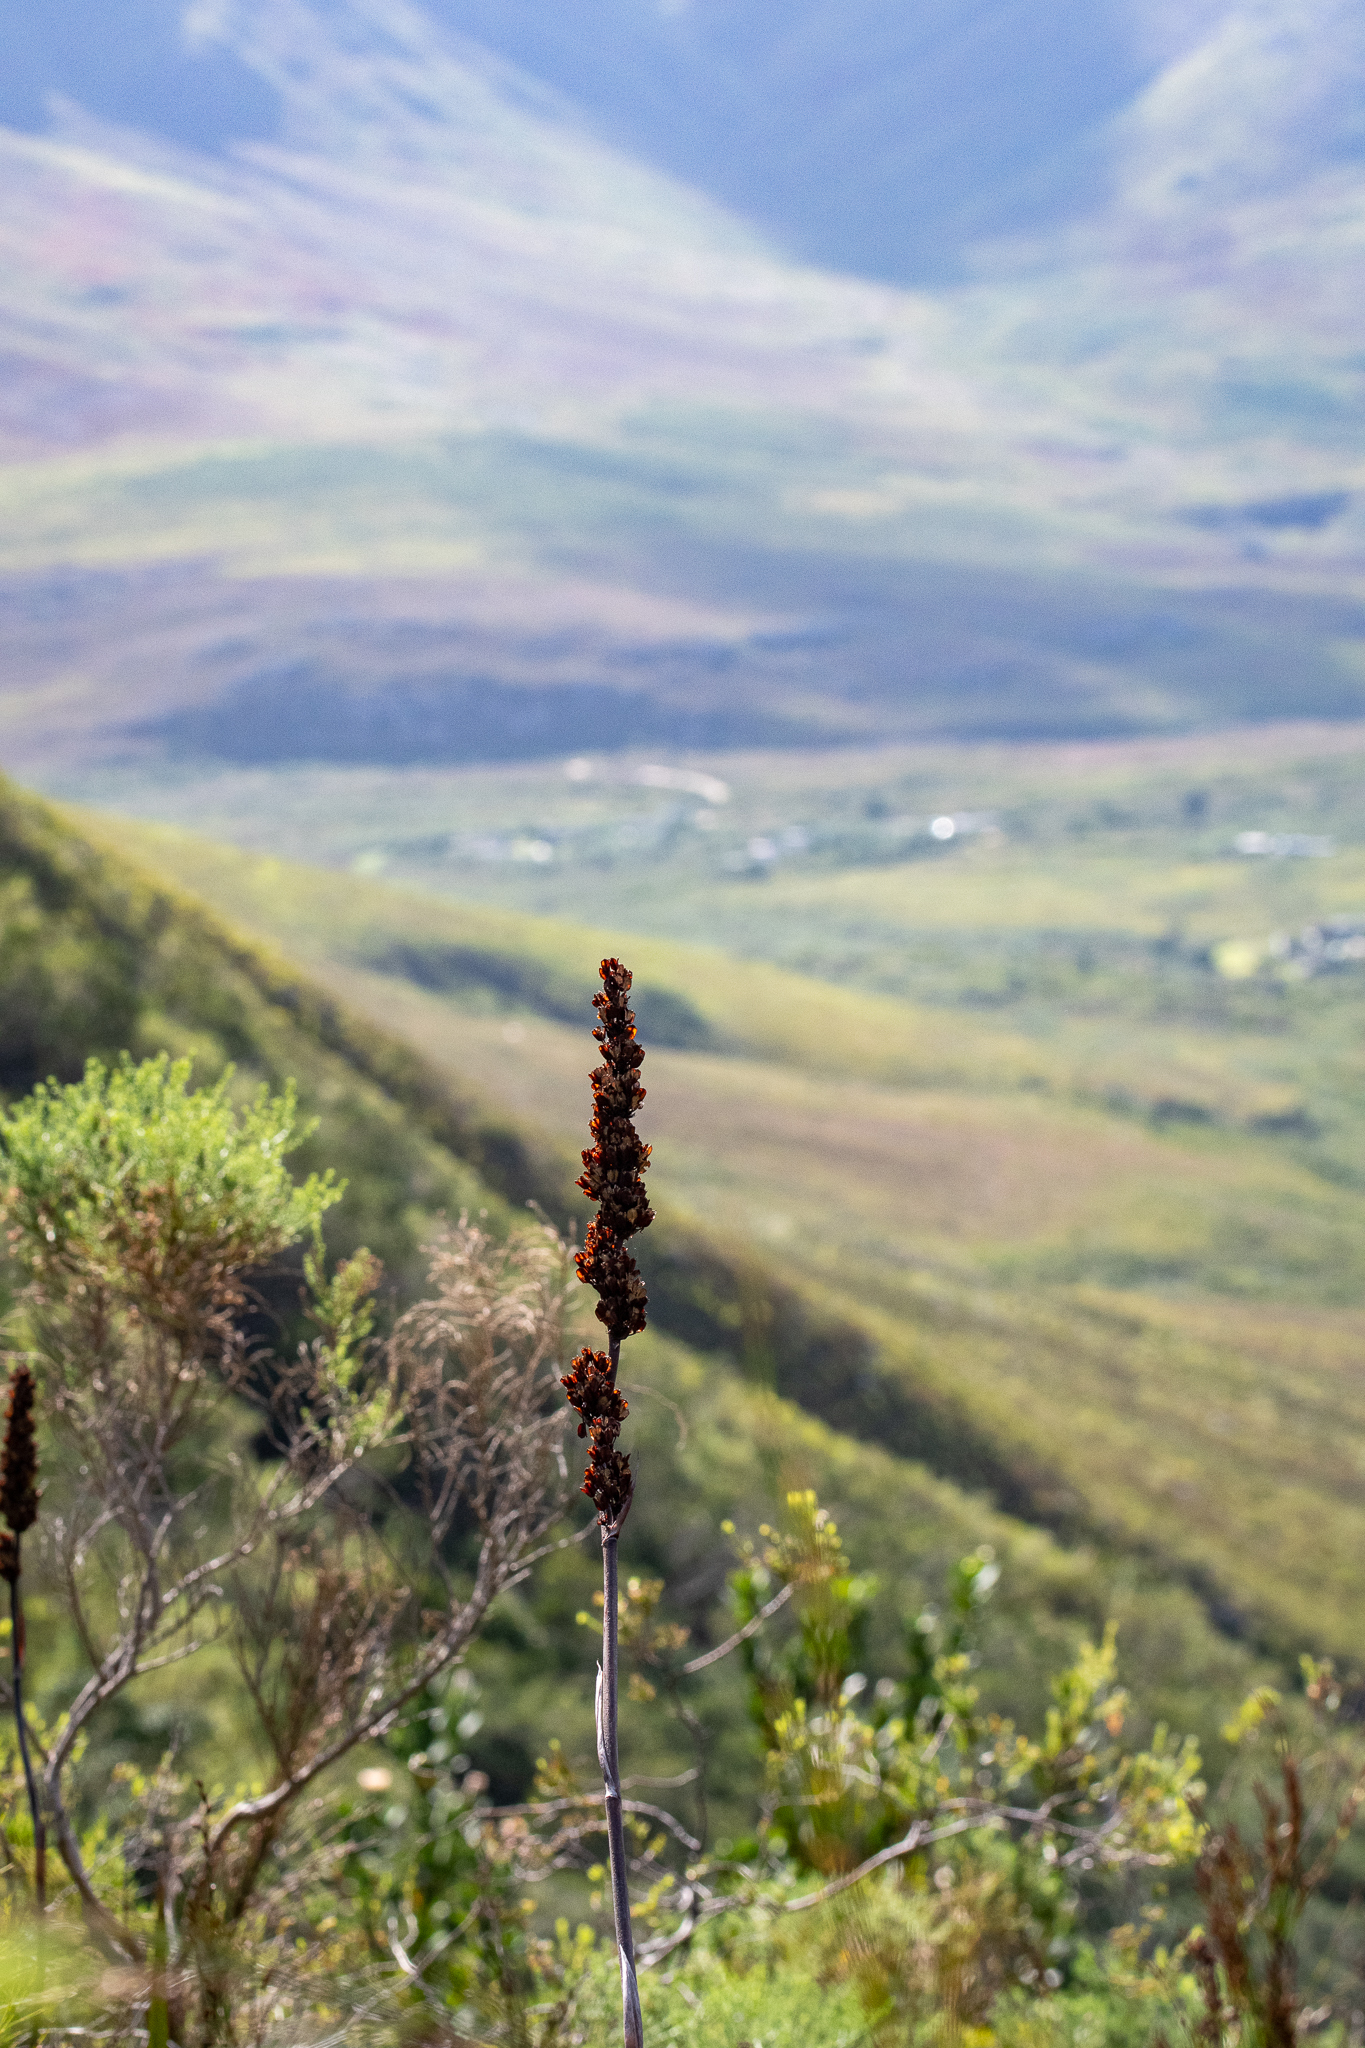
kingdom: Plantae
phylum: Tracheophyta
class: Liliopsida
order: Asparagales
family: Iridaceae
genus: Aristea
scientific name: Aristea capitata
